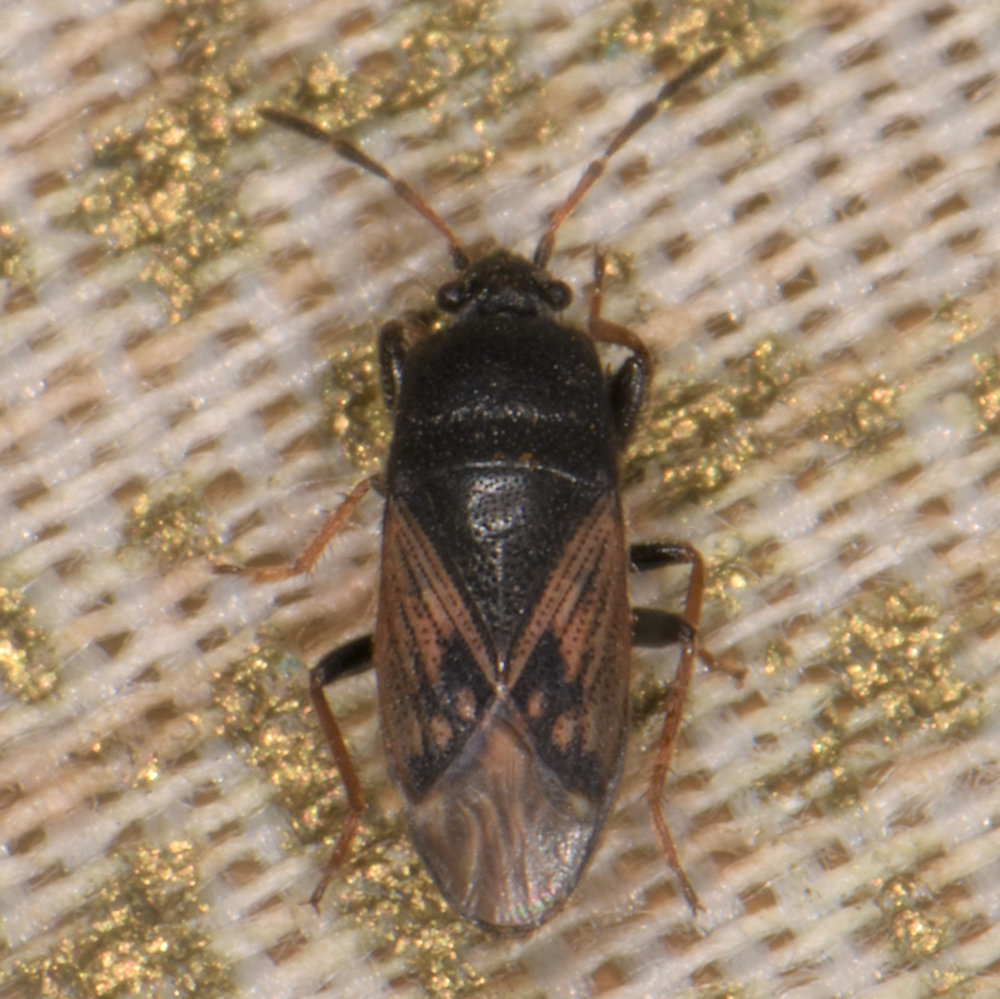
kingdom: Animalia
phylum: Arthropoda
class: Insecta
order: Hemiptera
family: Rhyparochromidae
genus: Megalonotus
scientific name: Megalonotus sabulicola
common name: Seed bug
